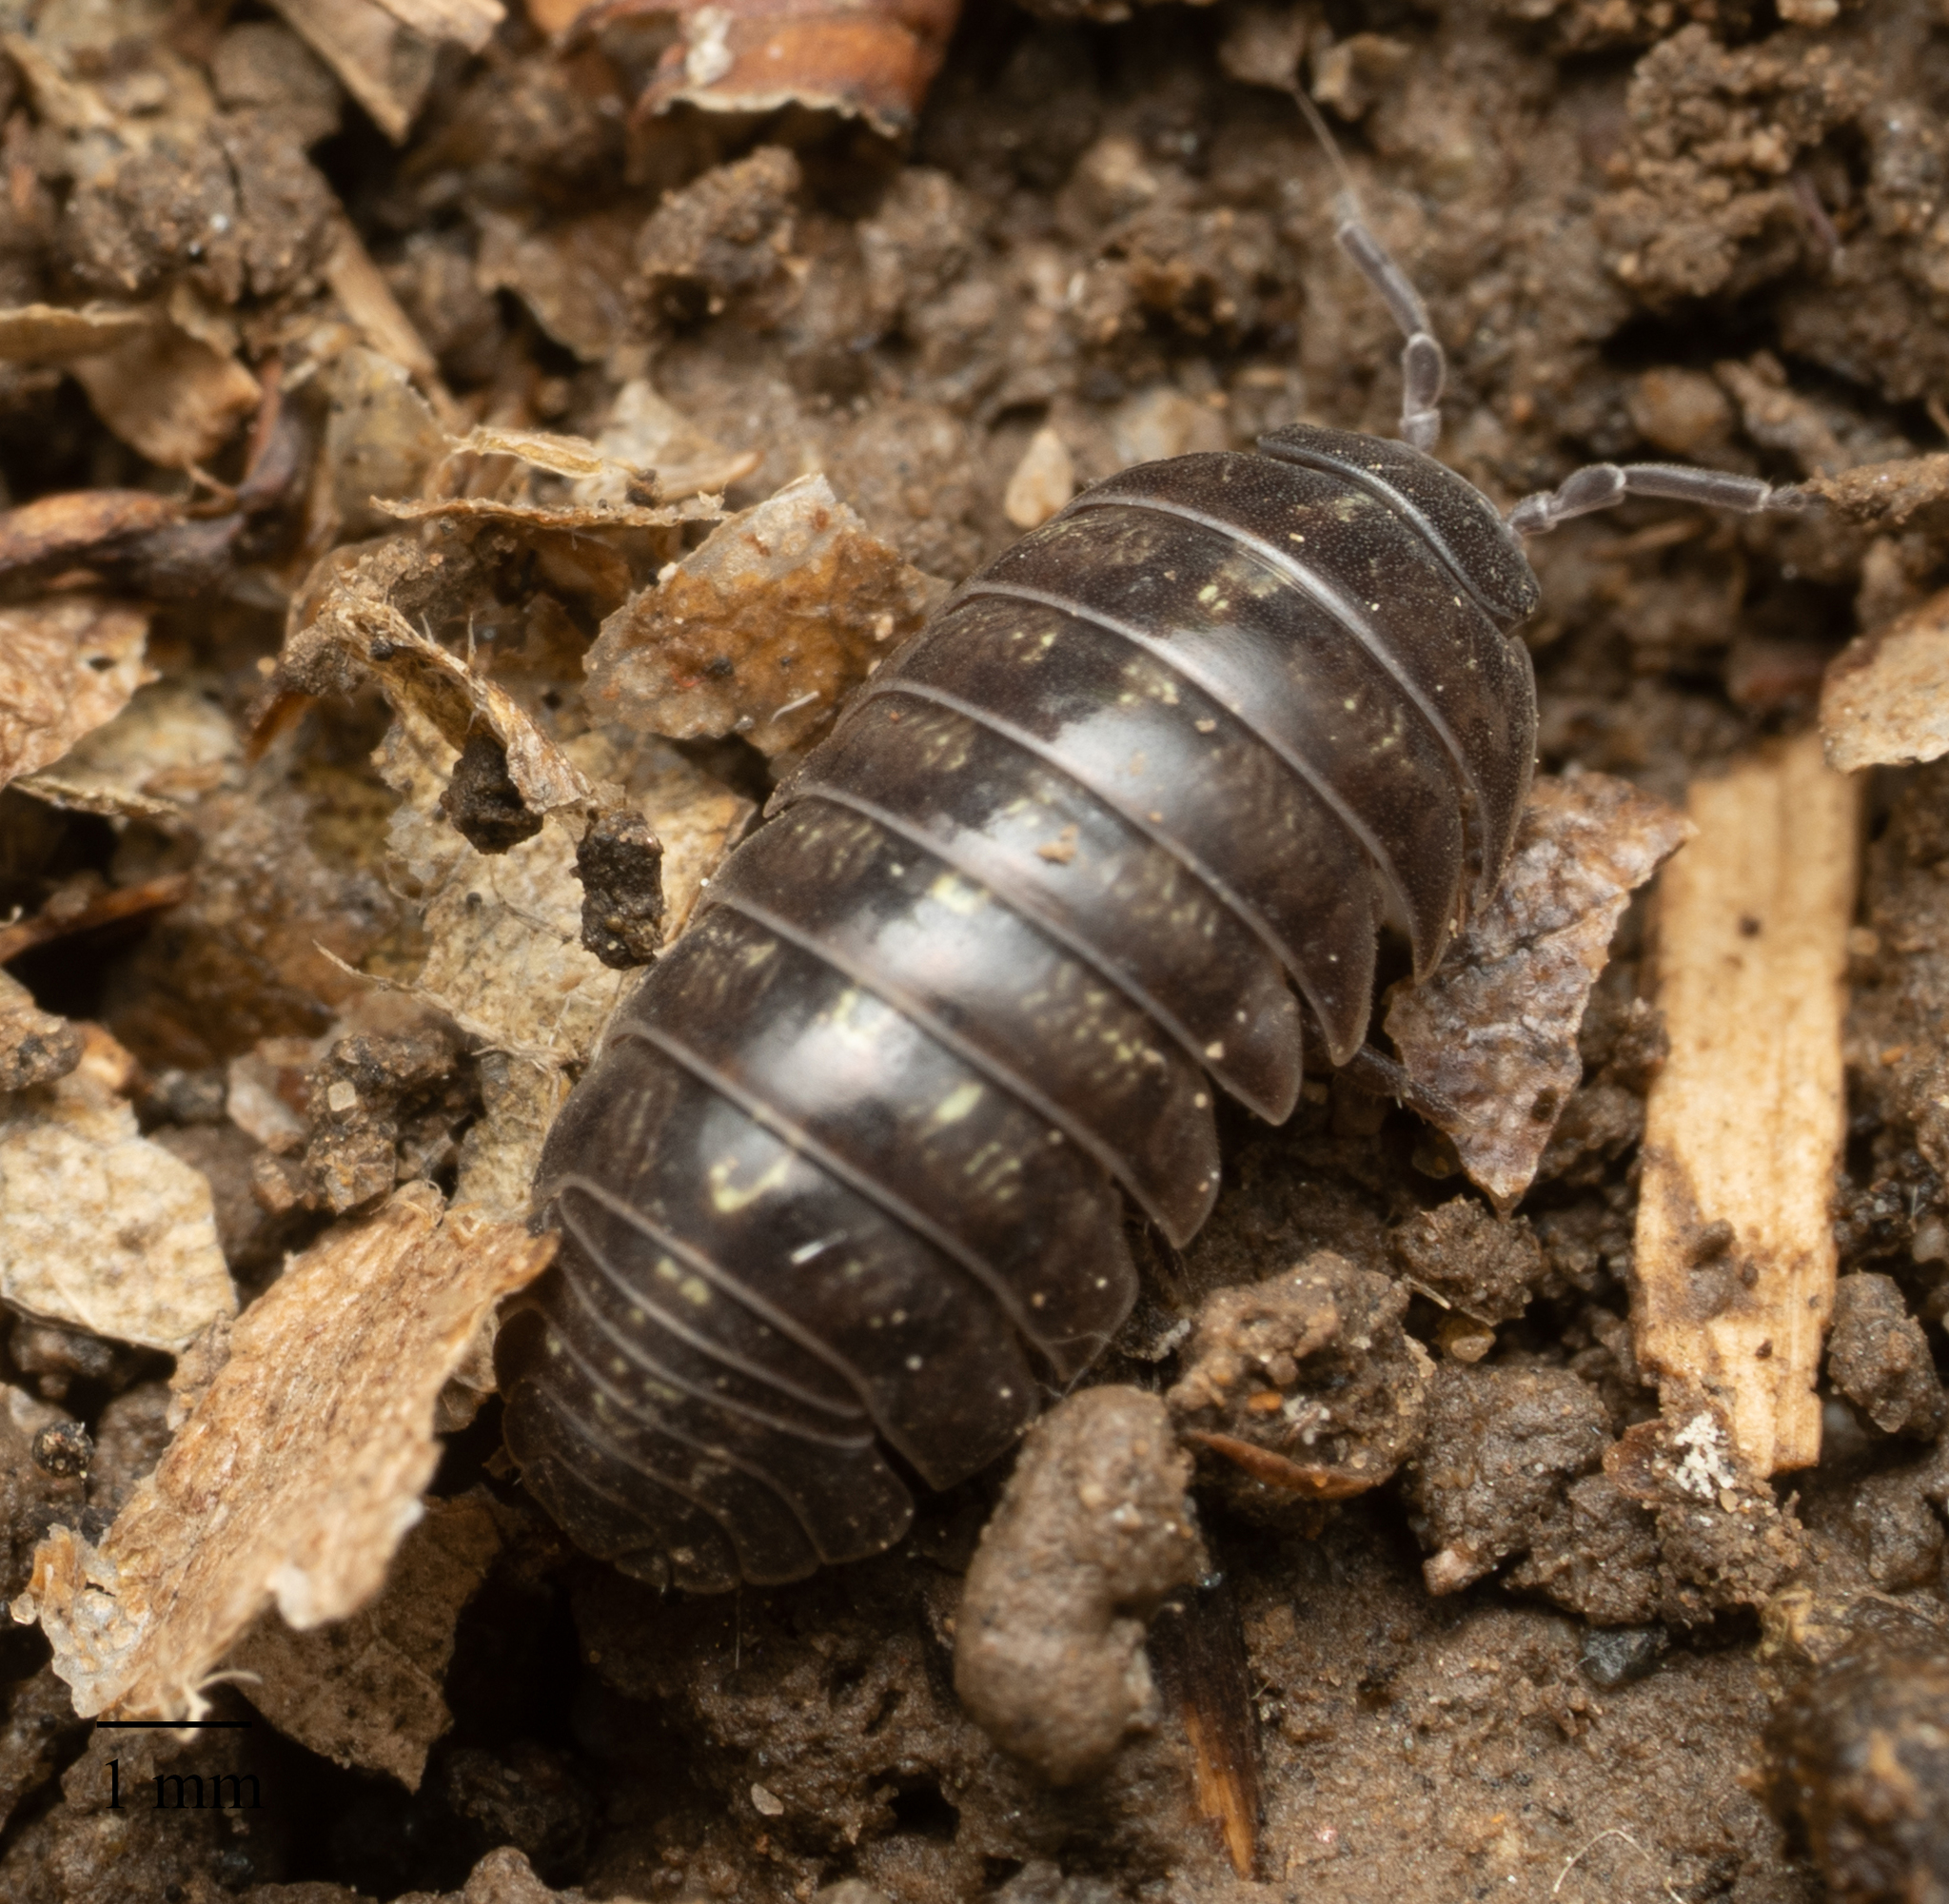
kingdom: Animalia
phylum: Arthropoda
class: Malacostraca
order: Isopoda
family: Armadillidiidae
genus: Armadillidium
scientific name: Armadillidium vulgare
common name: Common pill woodlouse
